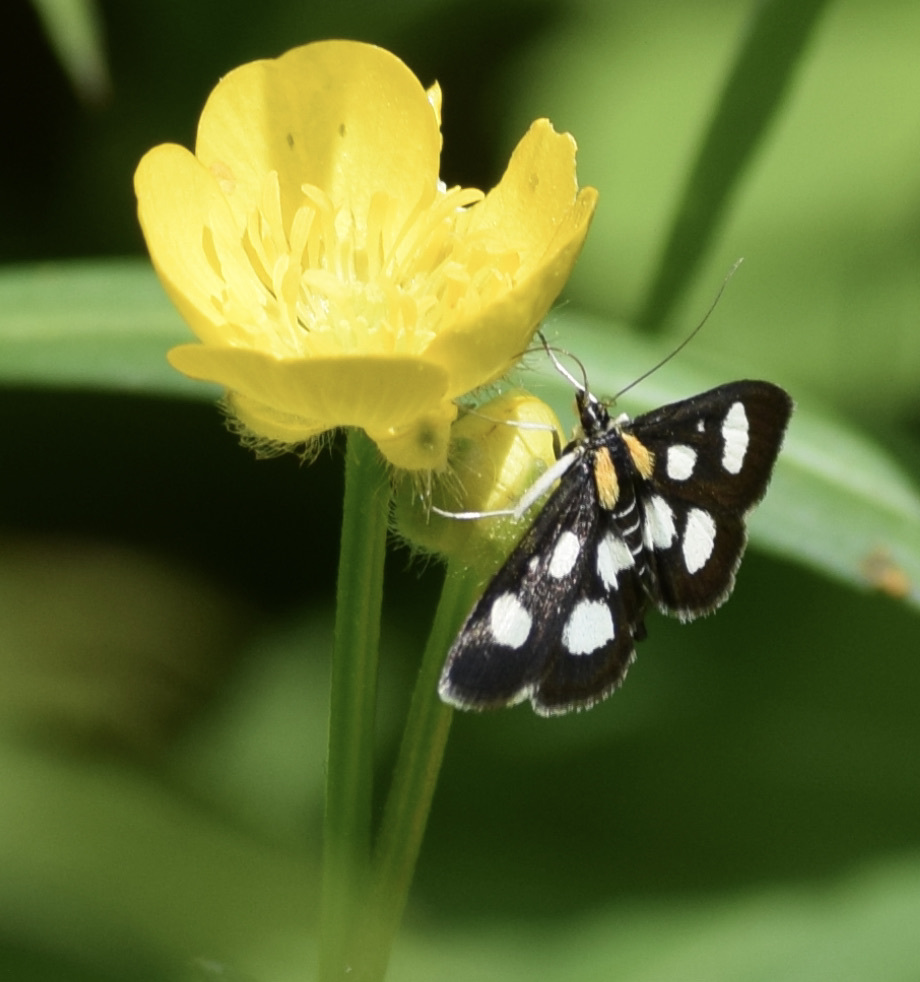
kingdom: Animalia
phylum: Arthropoda
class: Insecta
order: Lepidoptera
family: Crambidae
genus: Anania
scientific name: Anania funebris
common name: White-spotted sable moth
